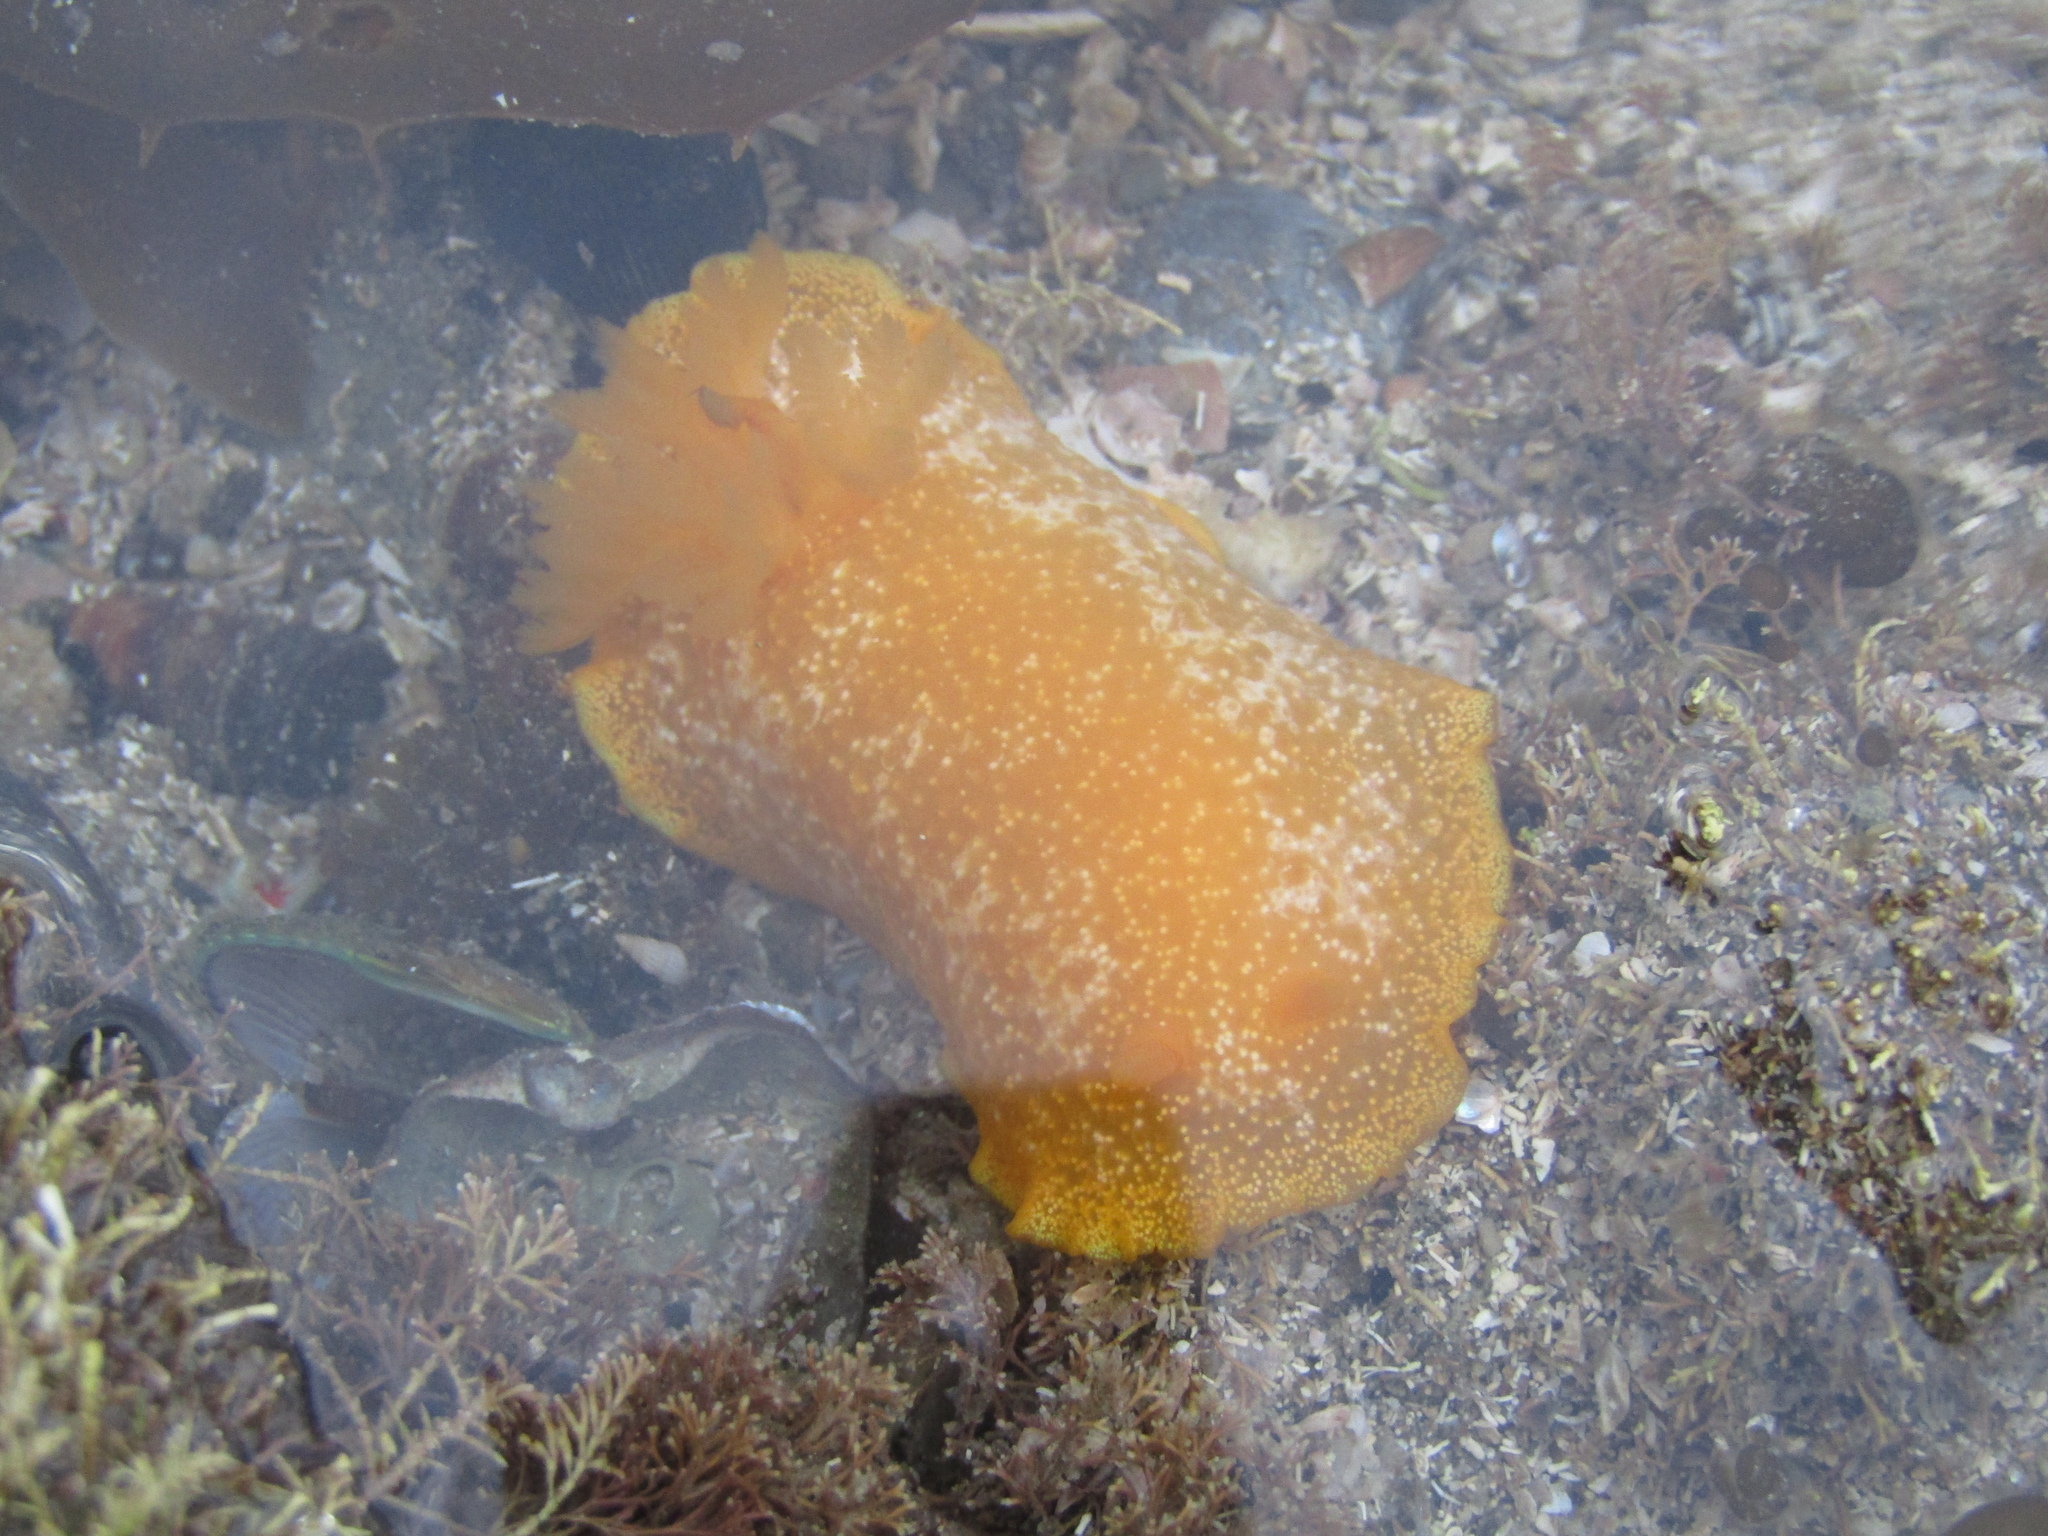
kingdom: Animalia
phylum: Mollusca
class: Gastropoda
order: Nudibranchia
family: Dendrodorididae
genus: Dendrodoris
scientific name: Dendrodoris citrina
